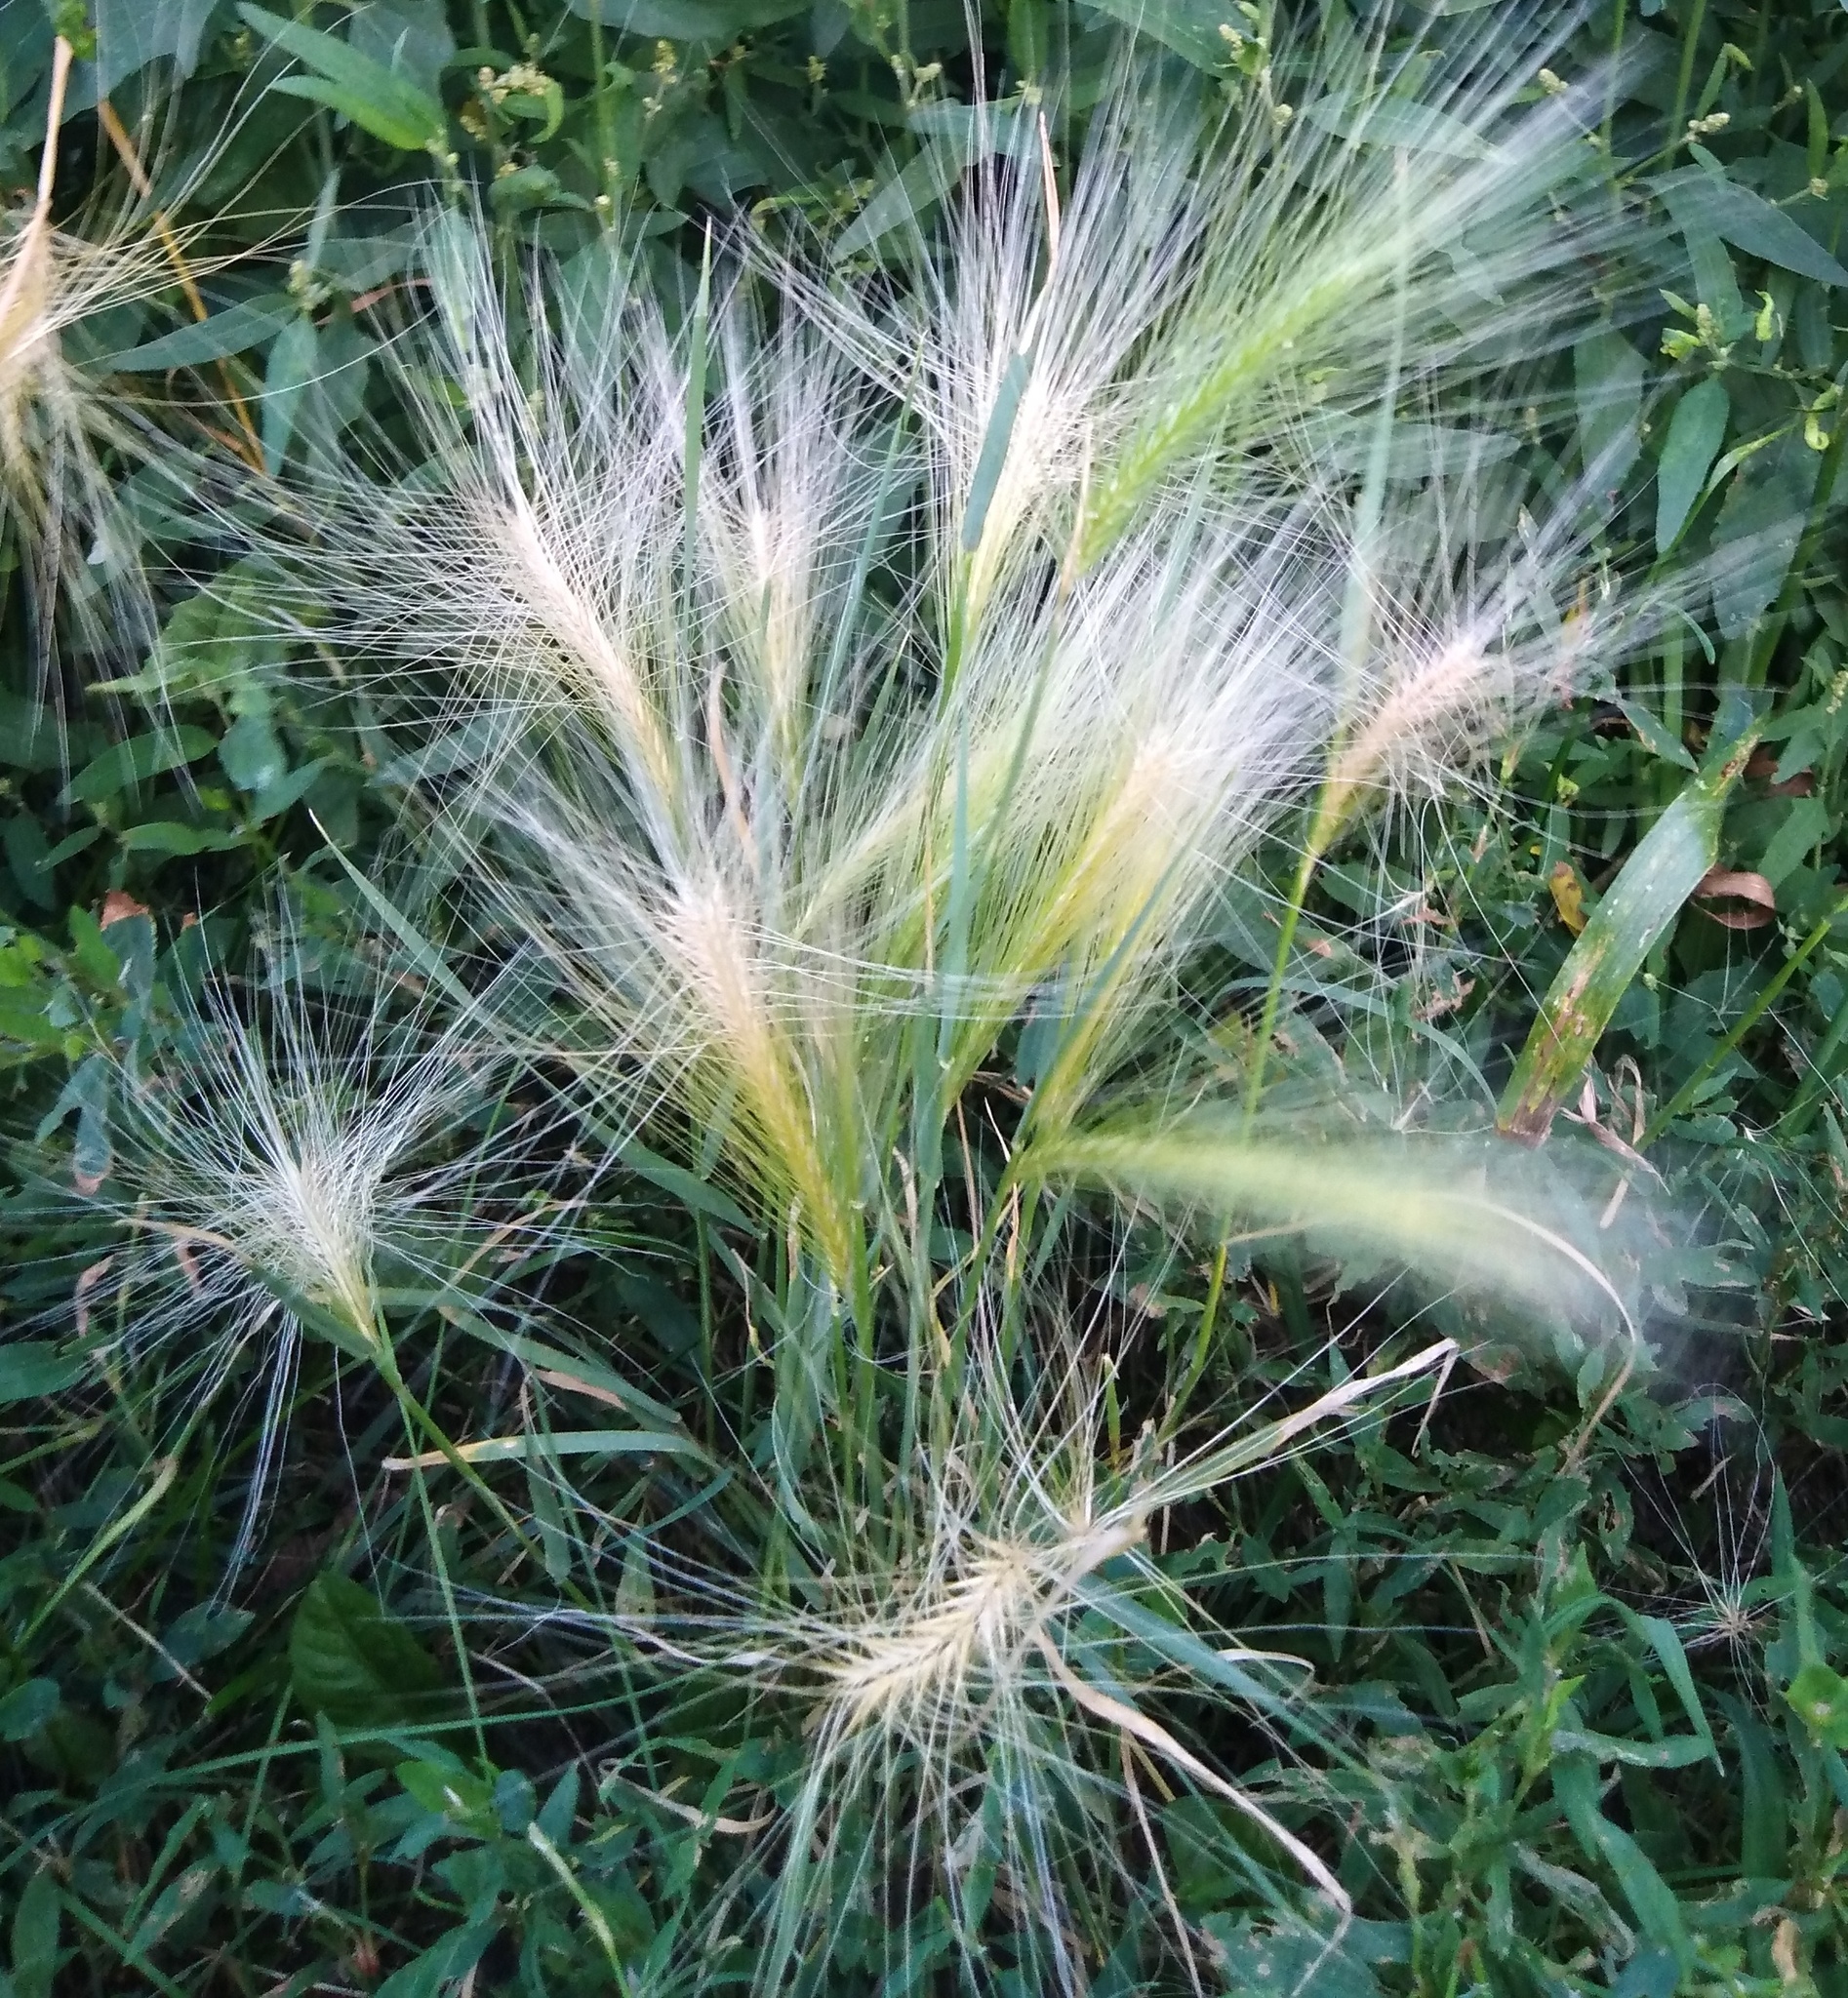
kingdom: Plantae
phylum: Tracheophyta
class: Liliopsida
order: Poales
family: Poaceae
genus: Hordeum
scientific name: Hordeum jubatum
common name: Foxtail barley
